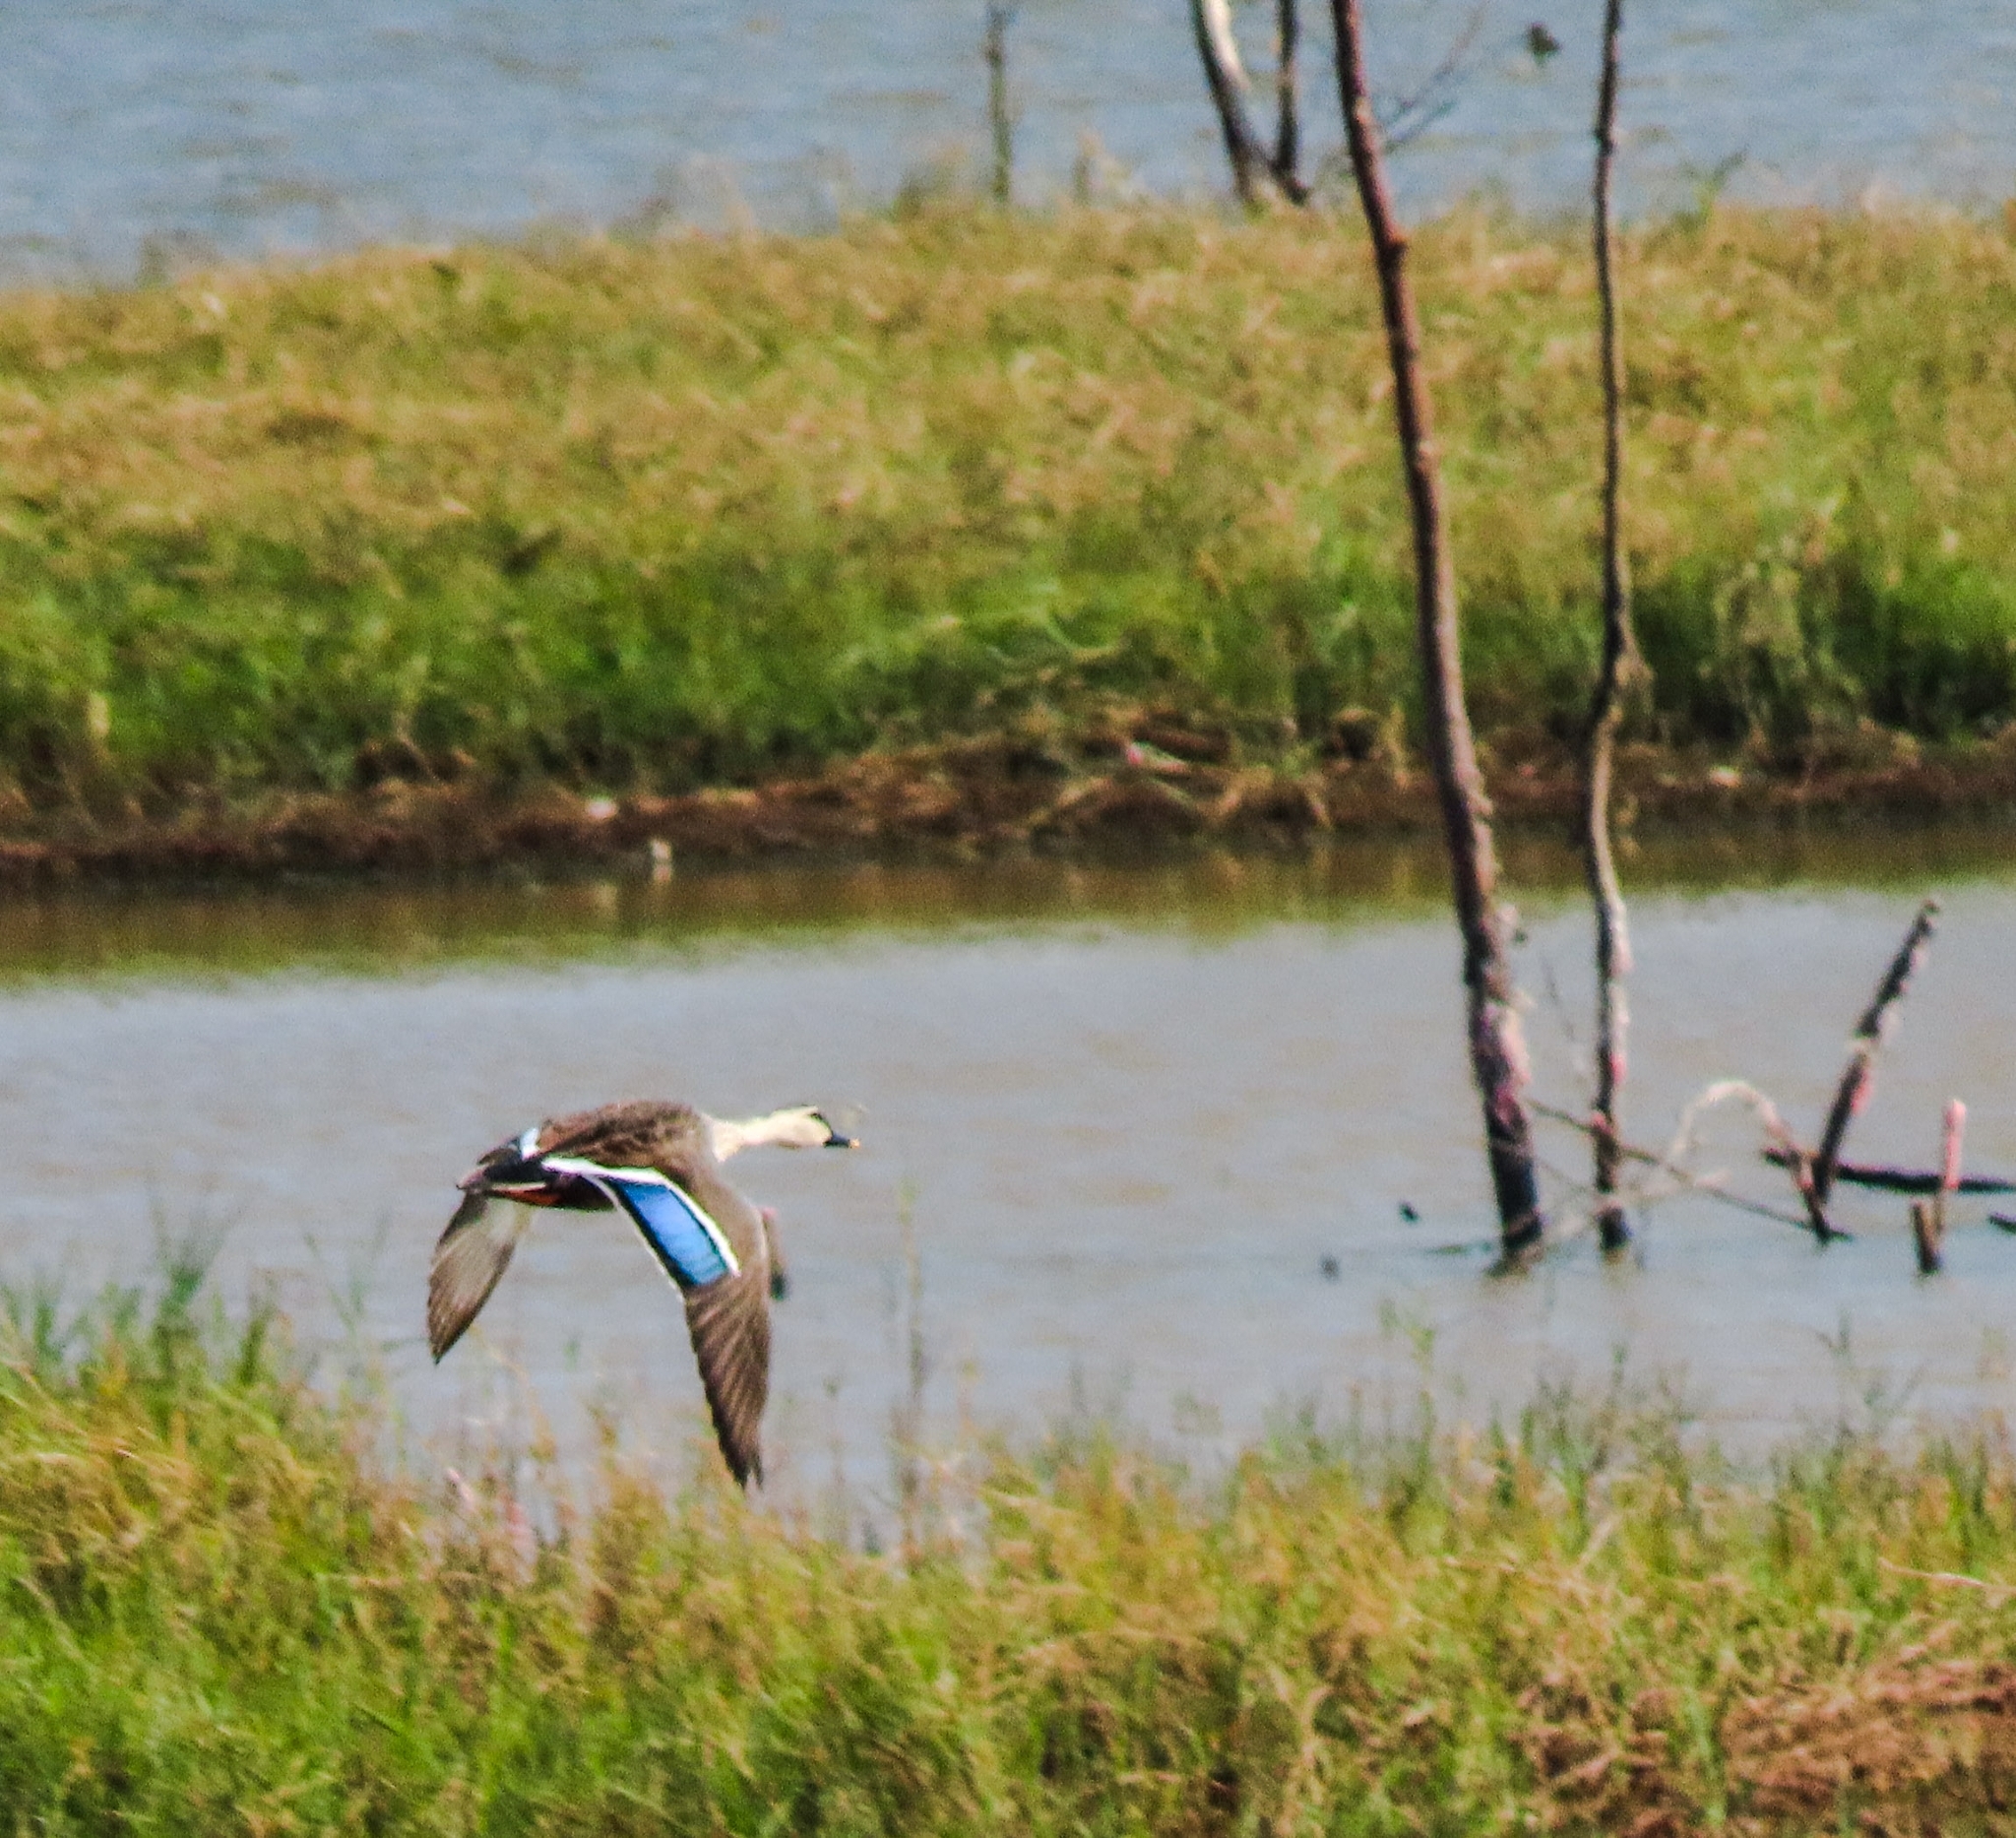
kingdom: Animalia
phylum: Chordata
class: Aves
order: Anseriformes
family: Anatidae
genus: Anas
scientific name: Anas poecilorhyncha
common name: Indian spot-billed duck
